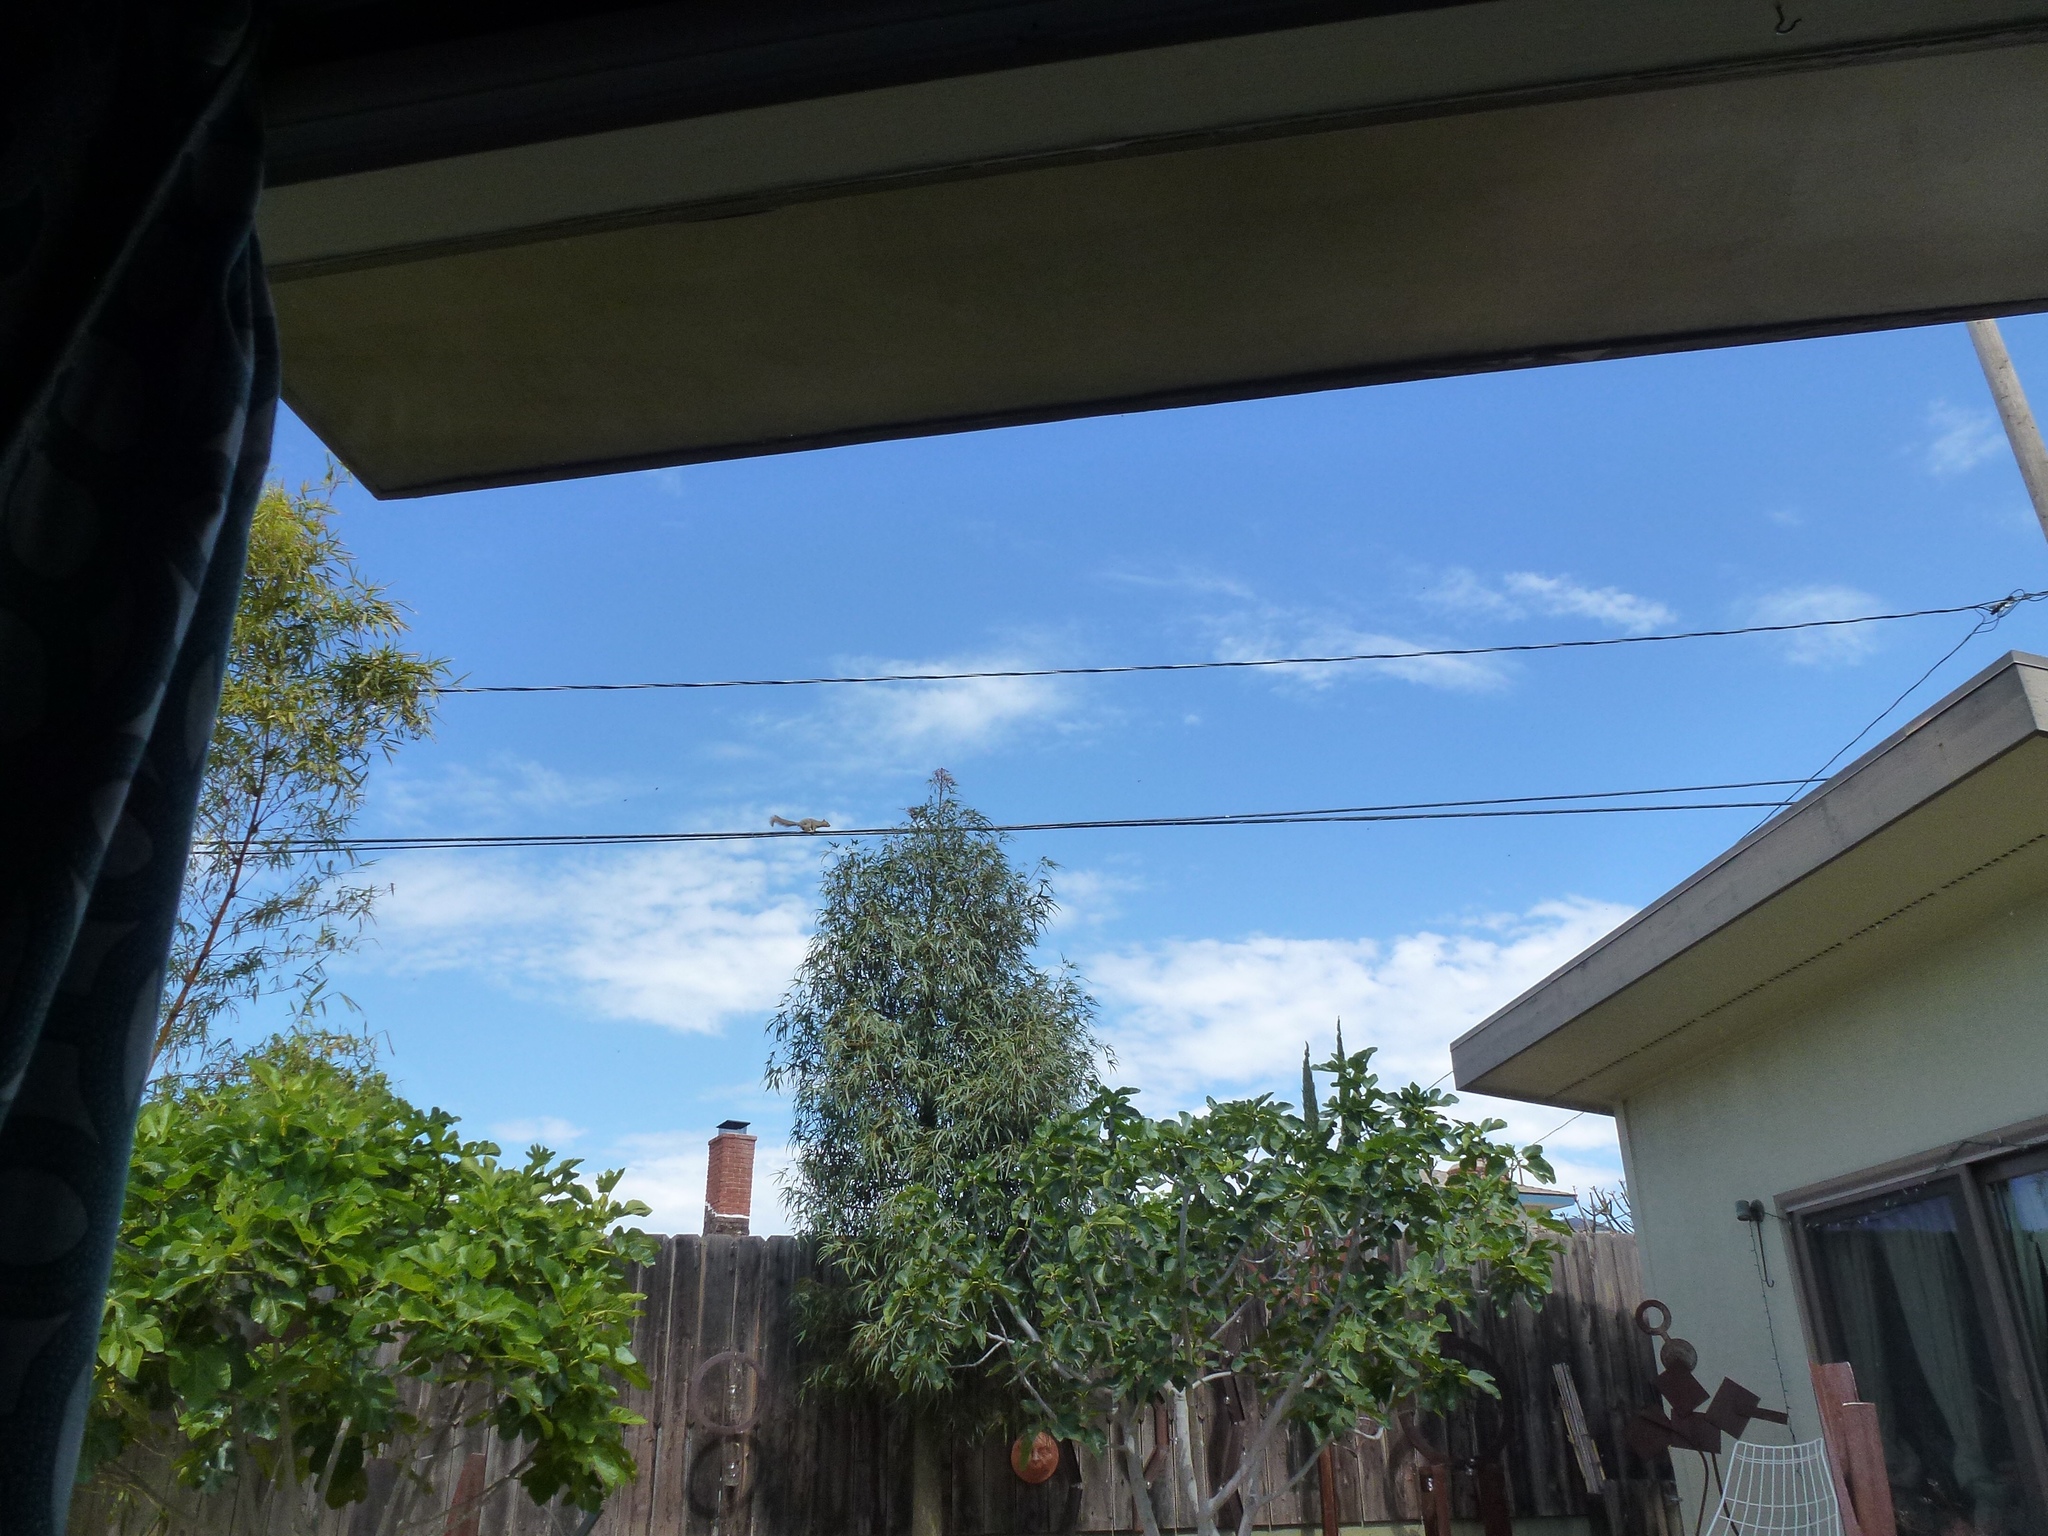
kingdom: Animalia
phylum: Chordata
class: Mammalia
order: Rodentia
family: Sciuridae
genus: Sciurus
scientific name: Sciurus niger
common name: Fox squirrel
